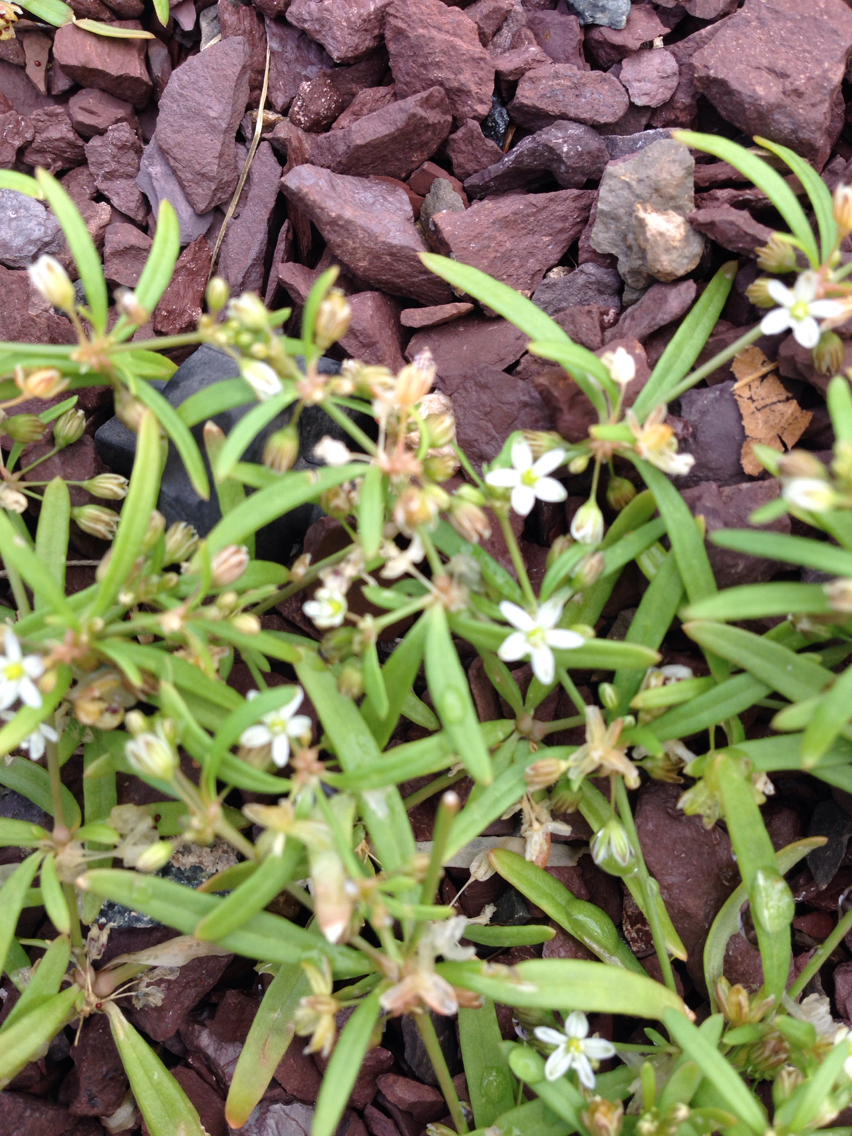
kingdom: Plantae
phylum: Tracheophyta
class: Magnoliopsida
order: Caryophyllales
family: Molluginaceae
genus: Mollugo
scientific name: Mollugo verticillata
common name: Green carpetweed
